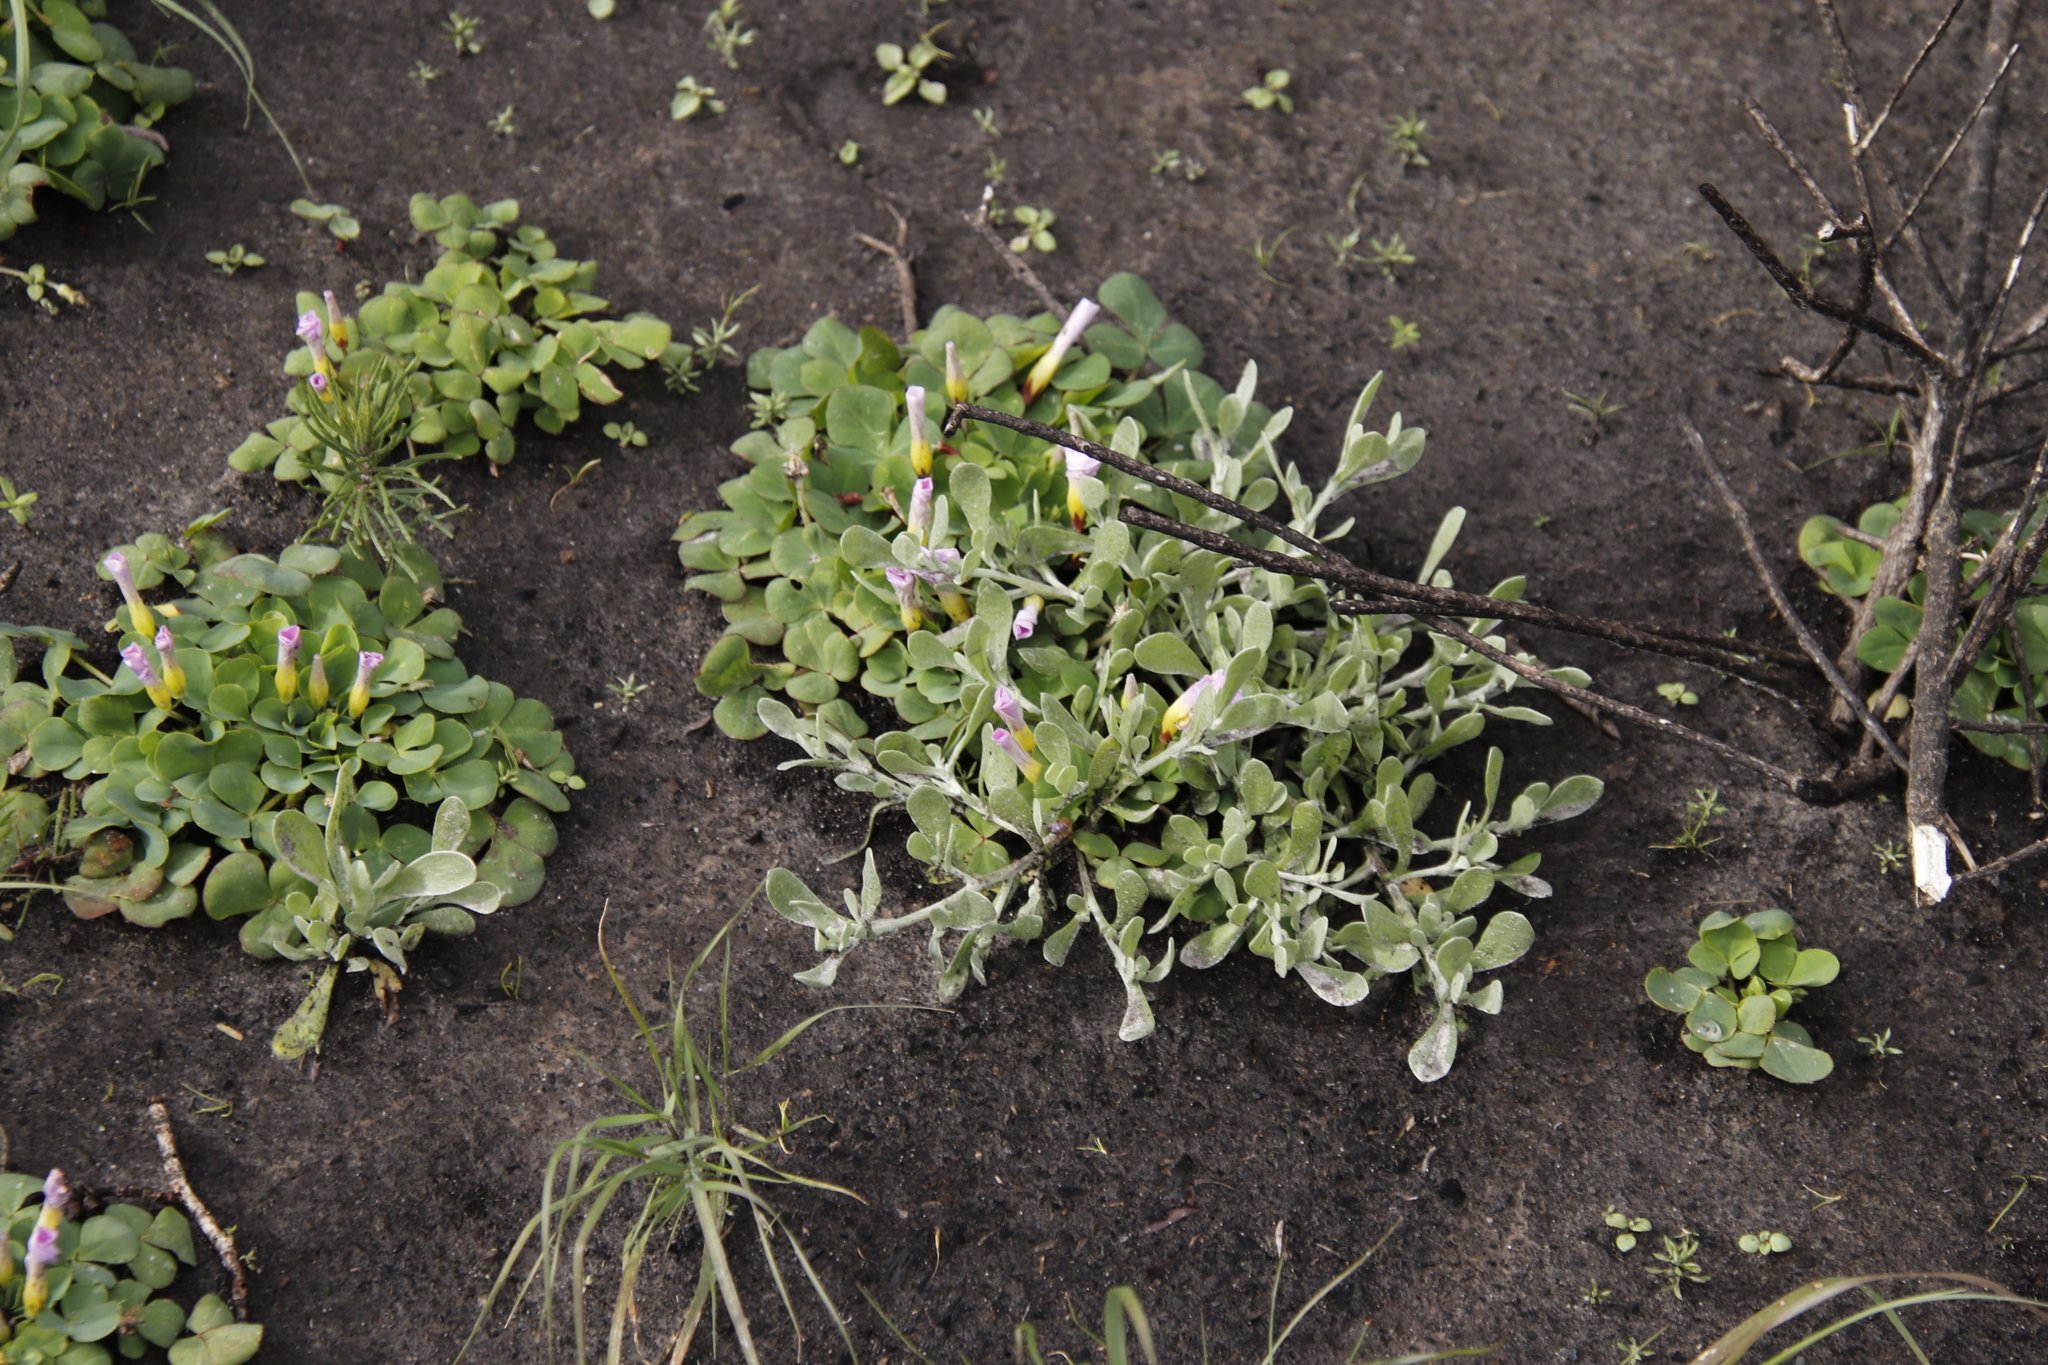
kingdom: Plantae
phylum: Tracheophyta
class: Magnoliopsida
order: Oxalidales
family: Oxalidaceae
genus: Oxalis
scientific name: Oxalis purpurea
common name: Purple woodsorrel
